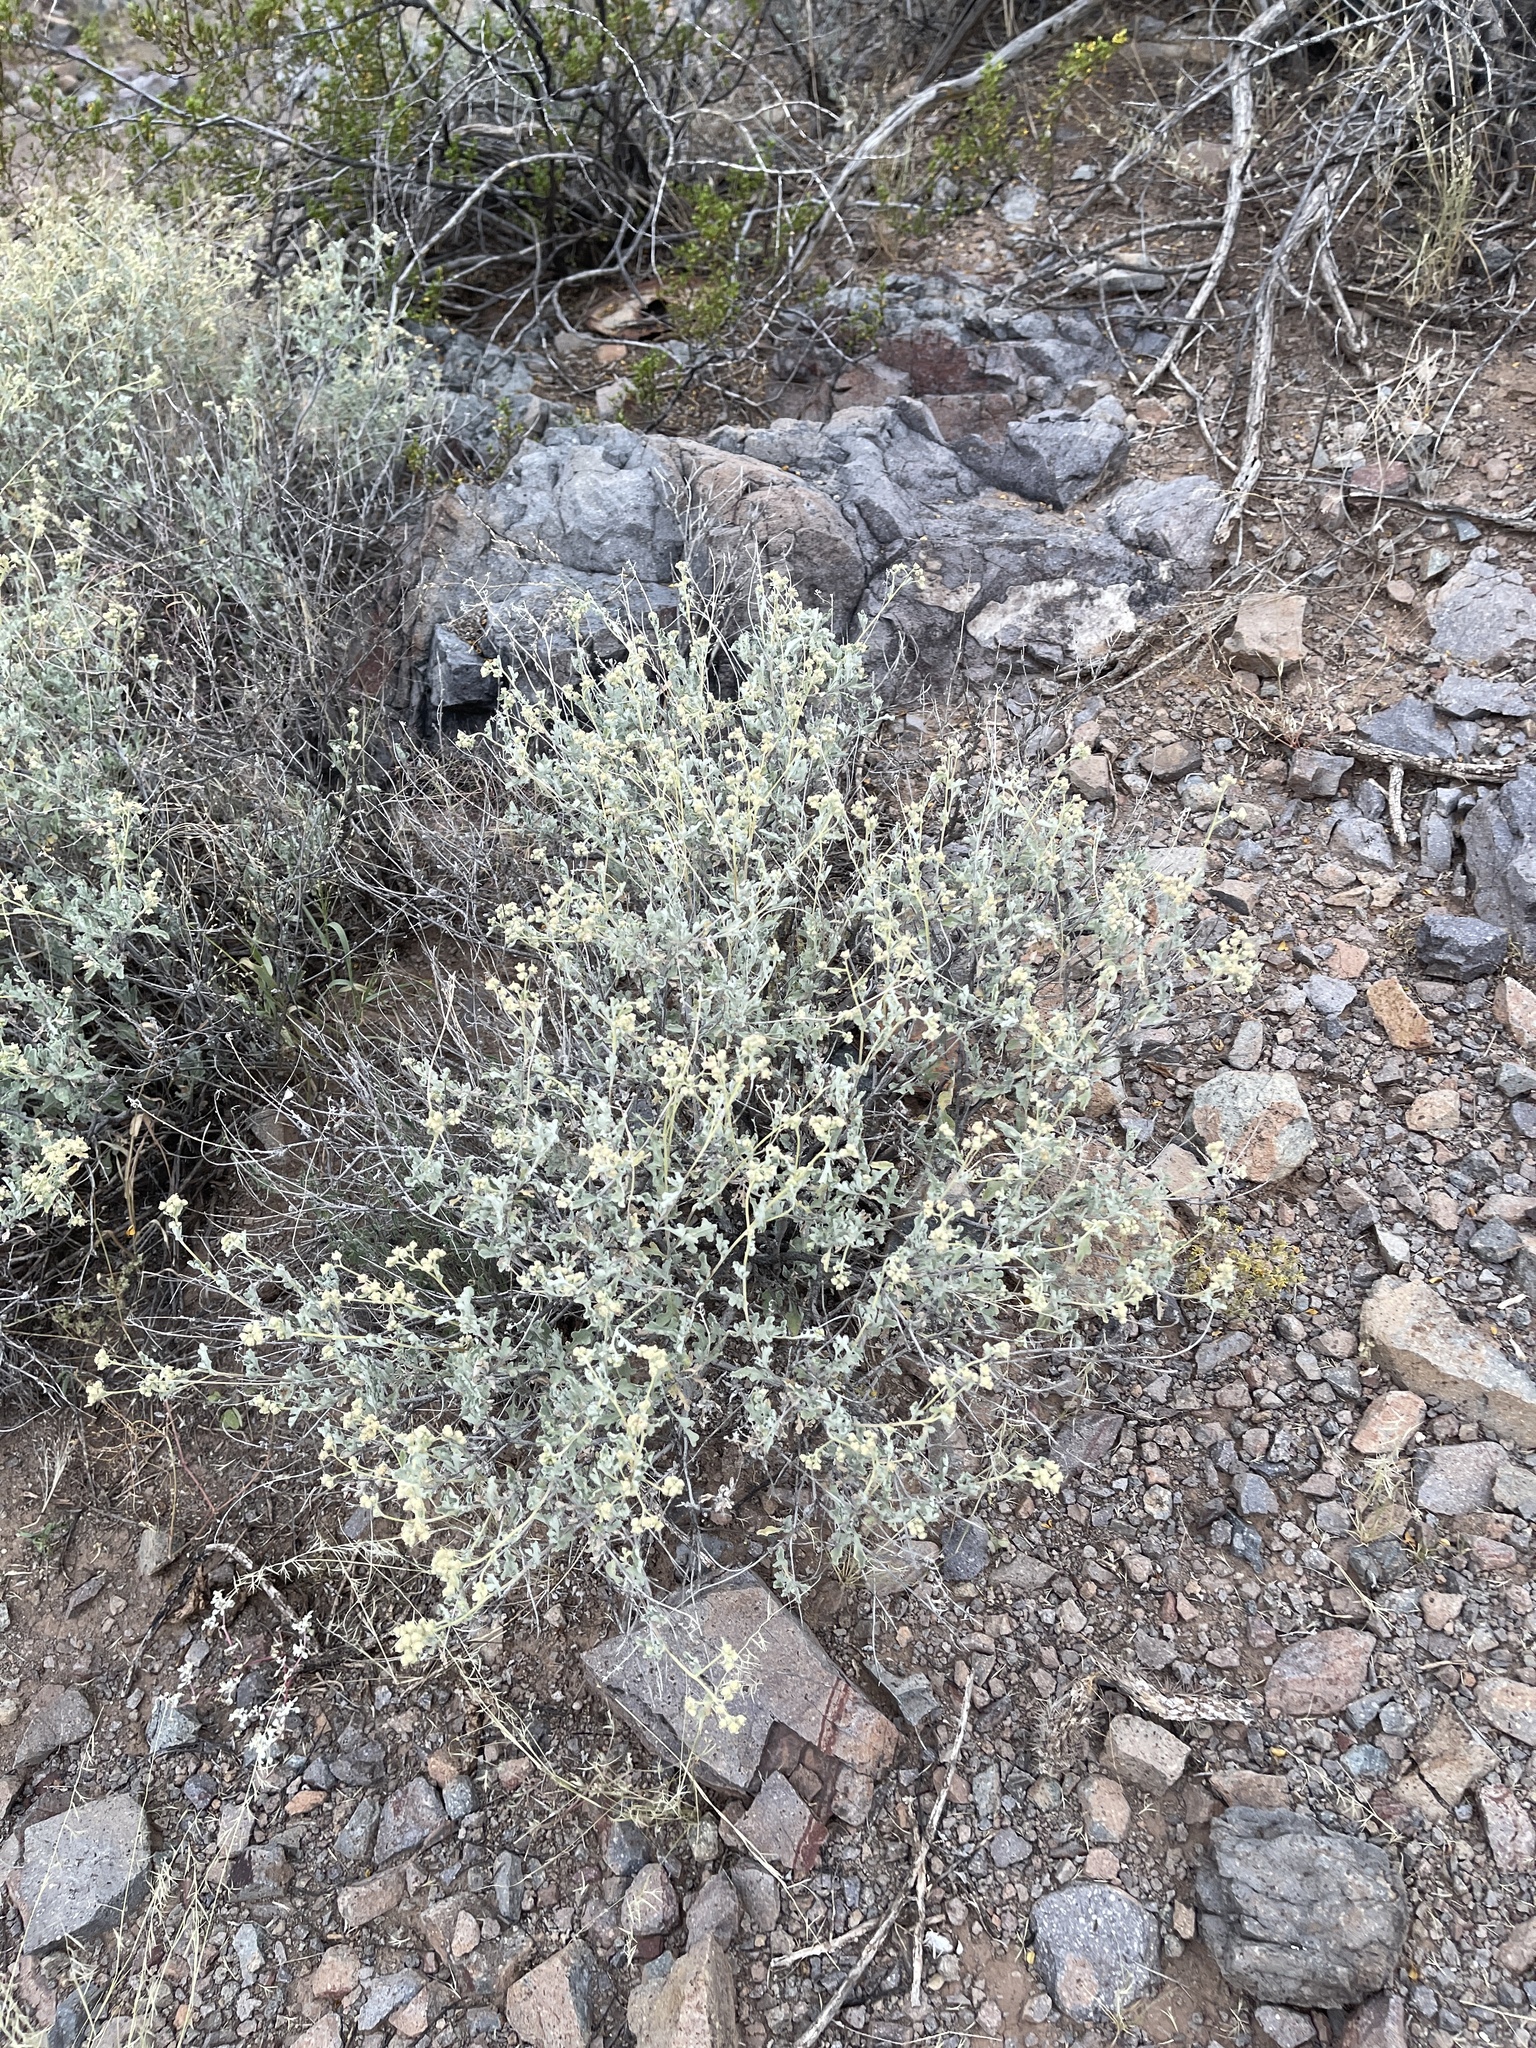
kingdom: Plantae
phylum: Tracheophyta
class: Magnoliopsida
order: Asterales
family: Asteraceae
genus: Parthenium
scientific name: Parthenium incanum
